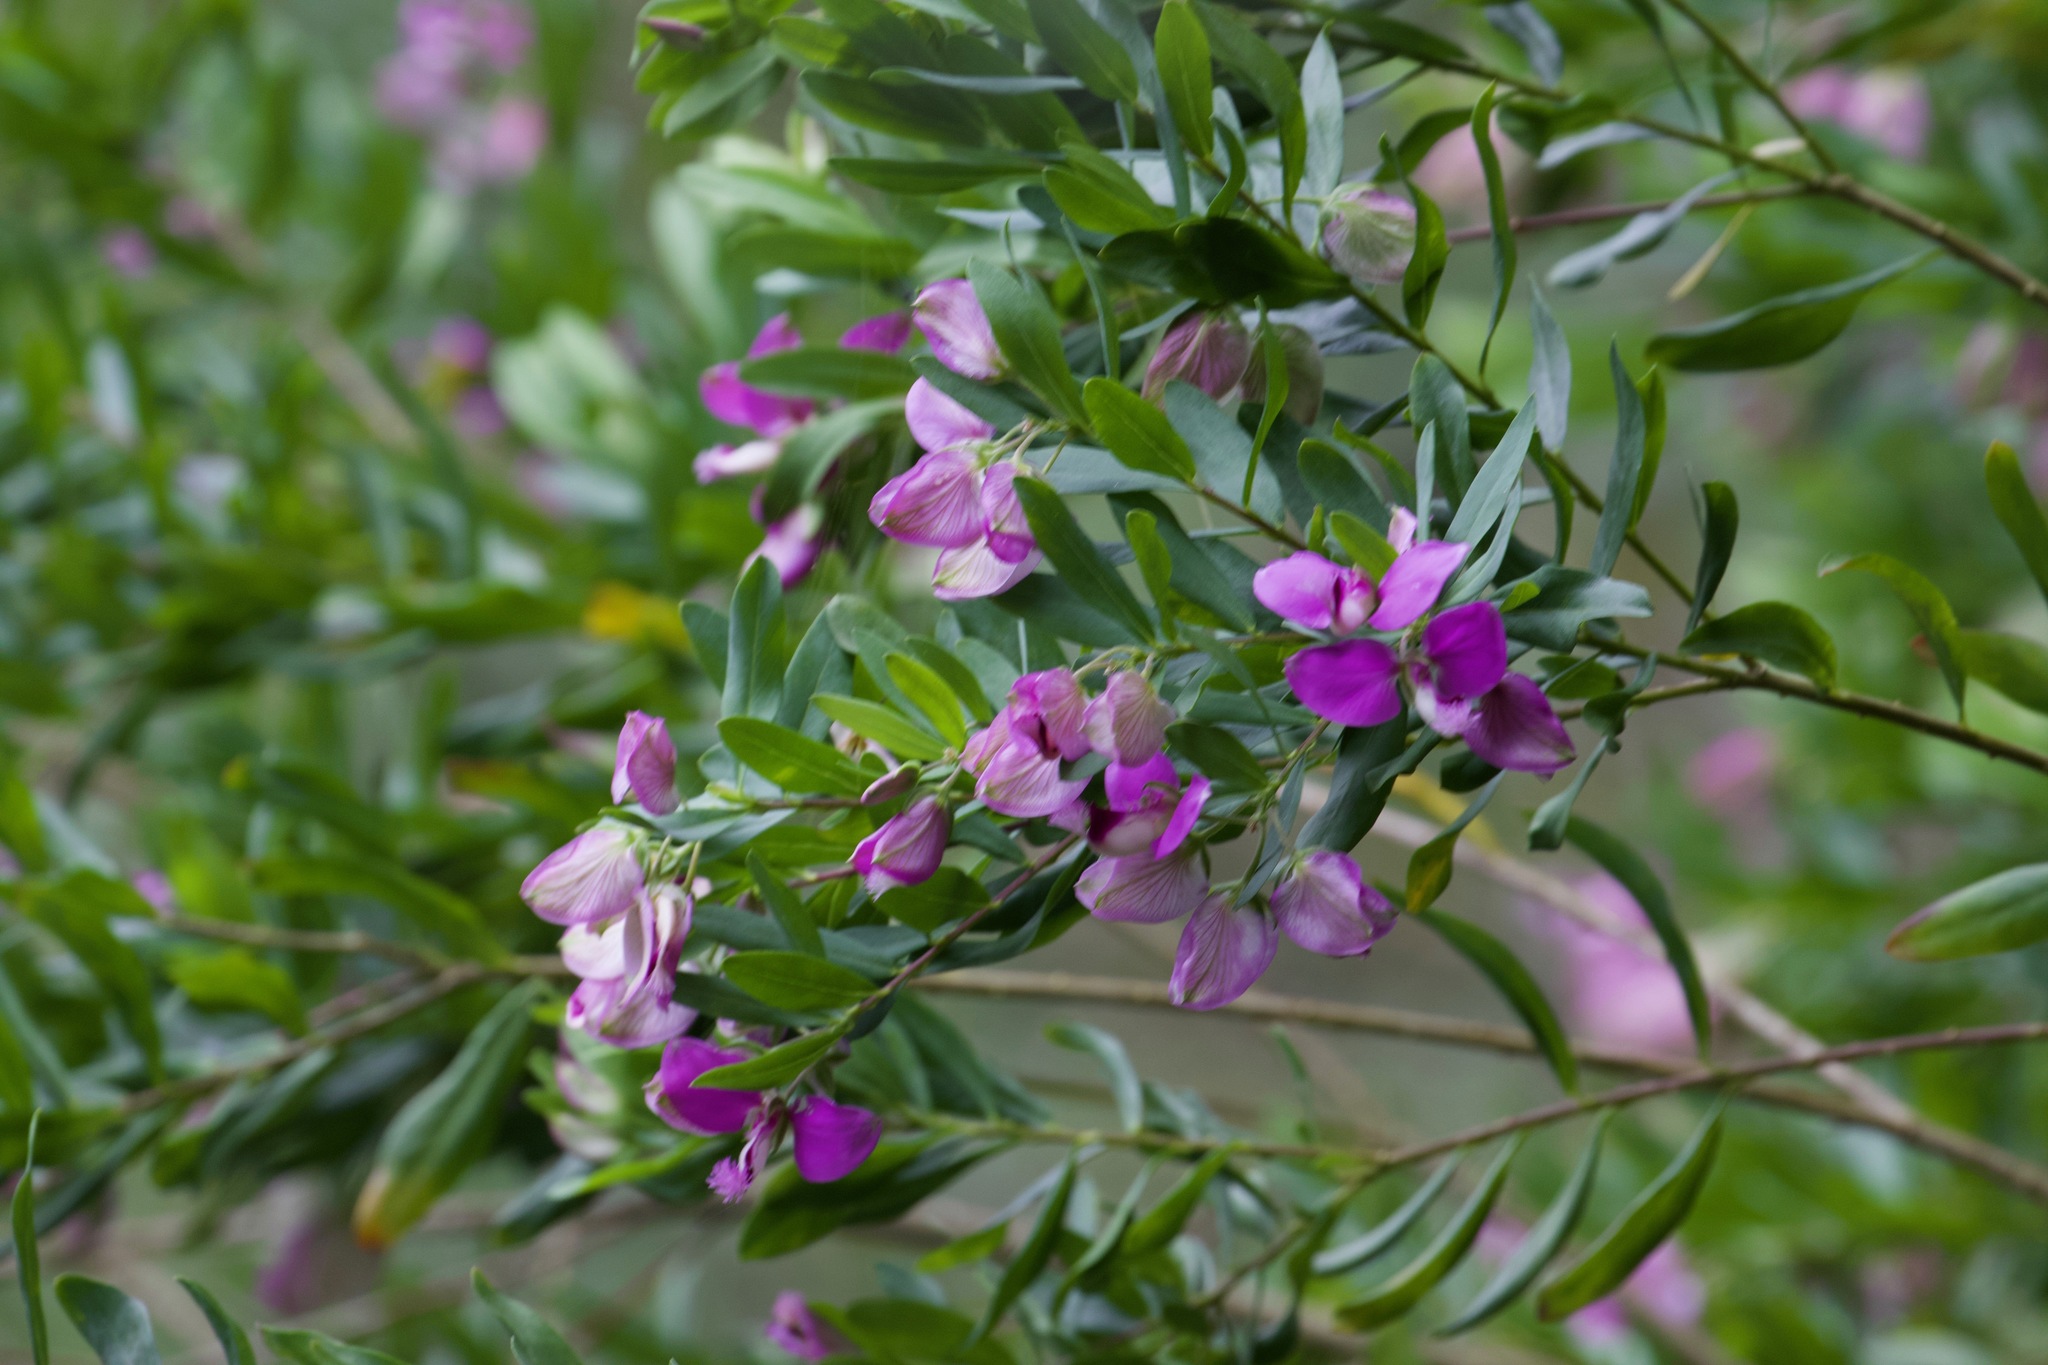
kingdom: Plantae
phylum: Tracheophyta
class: Magnoliopsida
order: Fabales
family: Polygalaceae
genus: Polygala
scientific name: Polygala myrtifolia
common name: Myrtle-leaf milkwort
